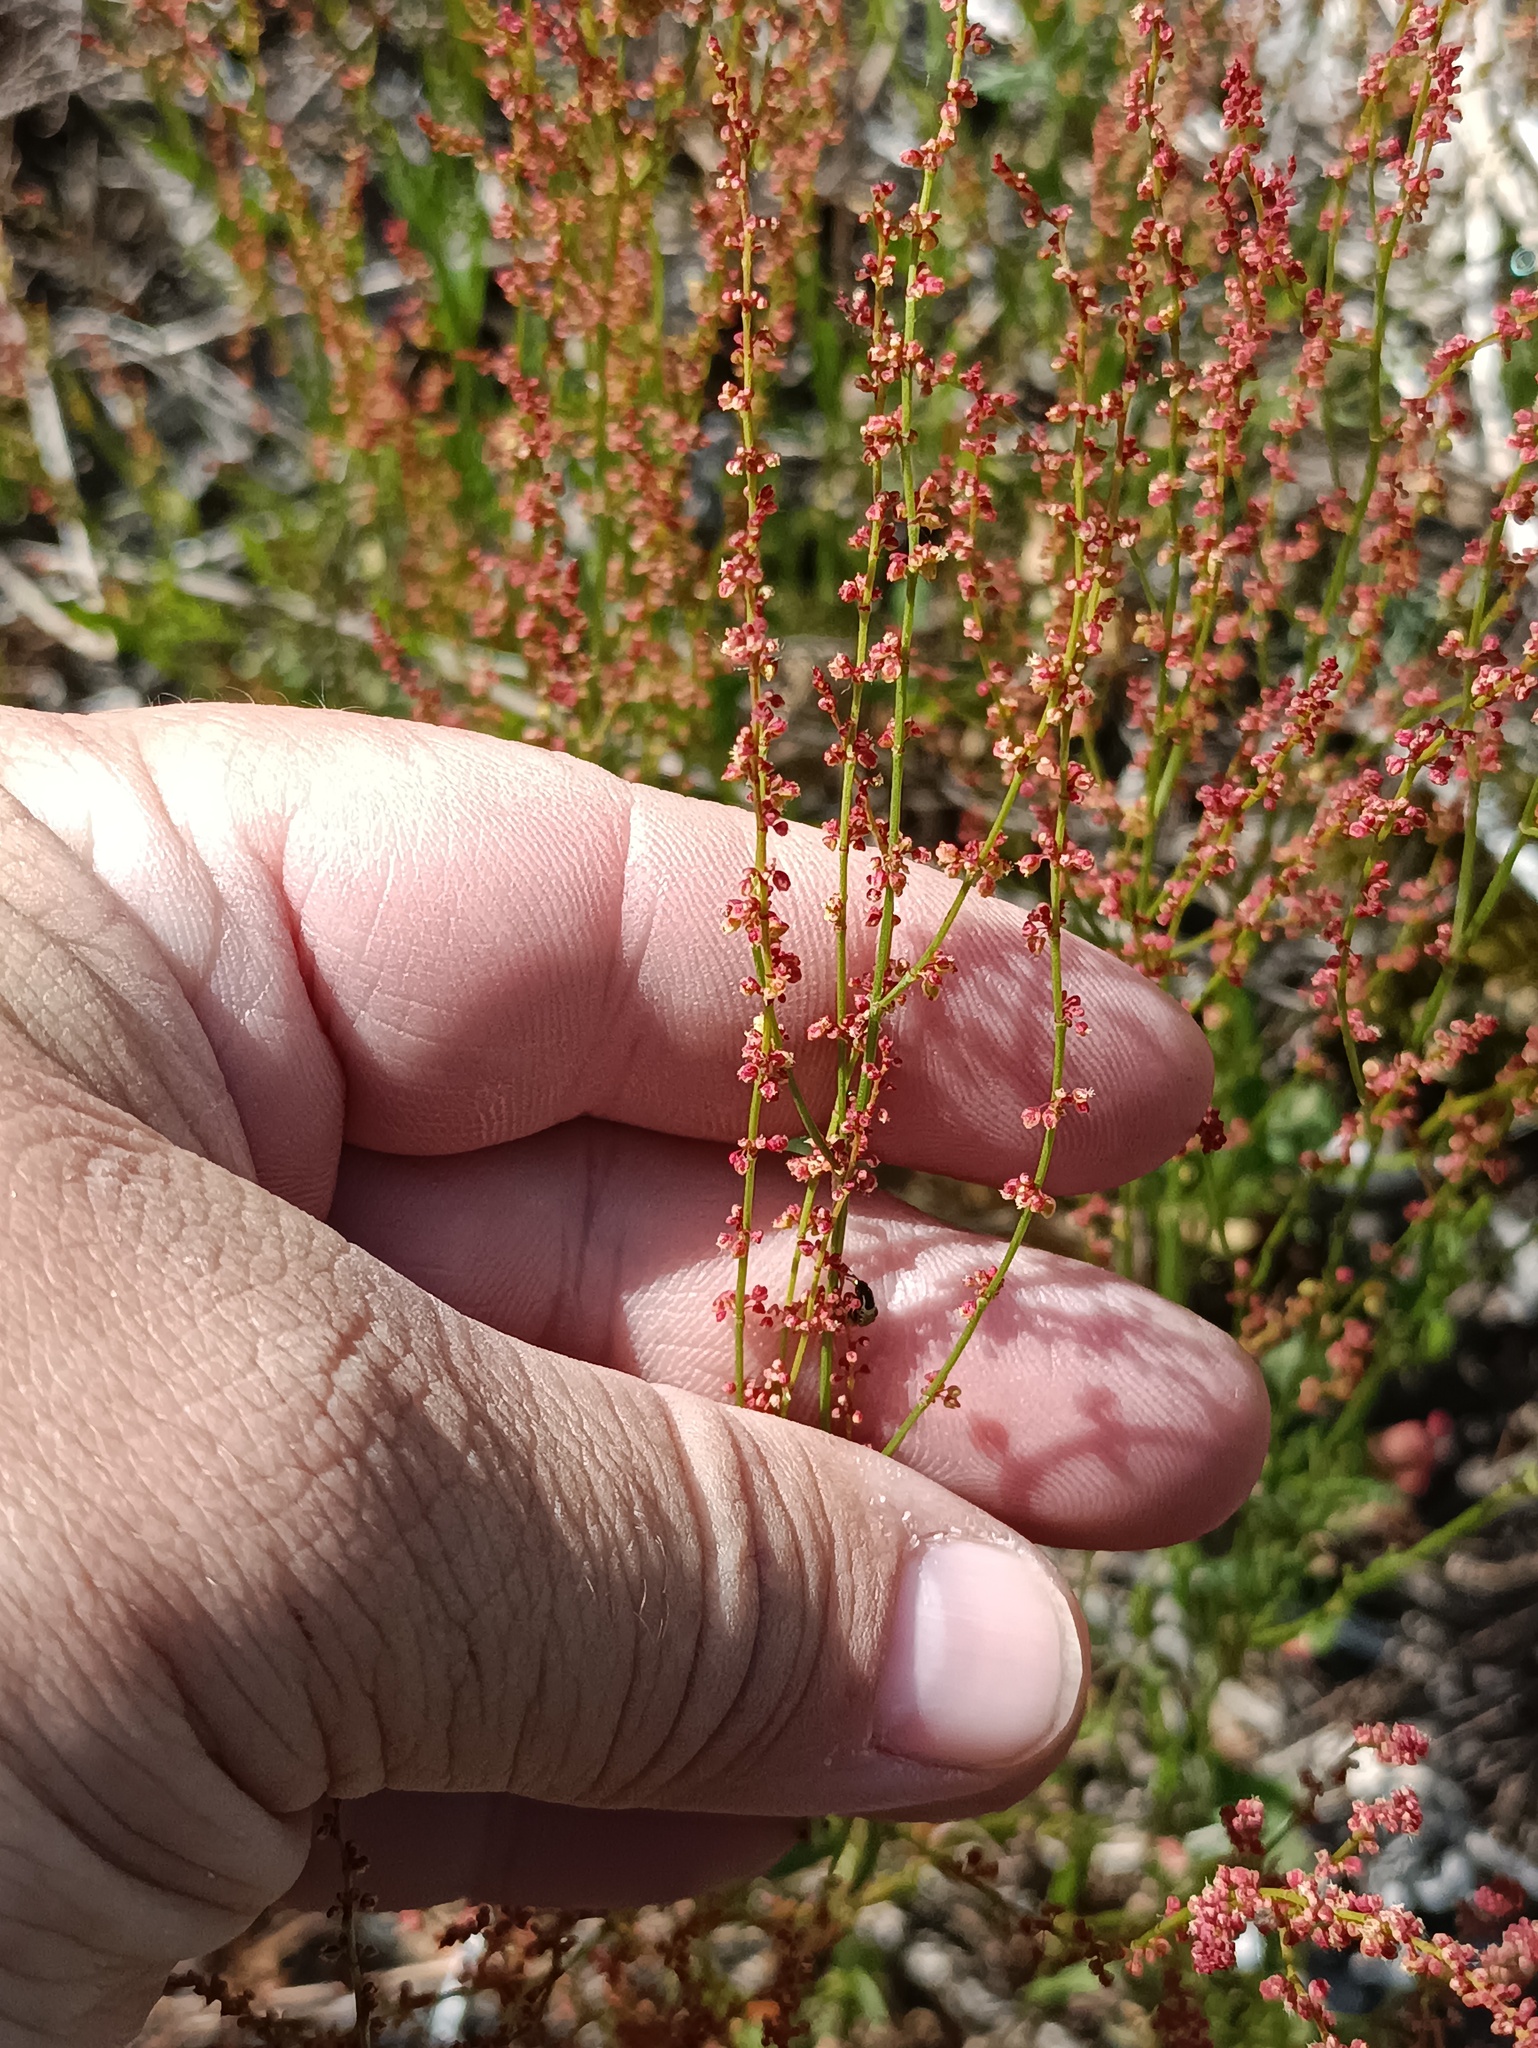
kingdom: Plantae
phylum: Tracheophyta
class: Magnoliopsida
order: Caryophyllales
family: Polygonaceae
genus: Rumex
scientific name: Rumex acetosella
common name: Common sheep sorrel
